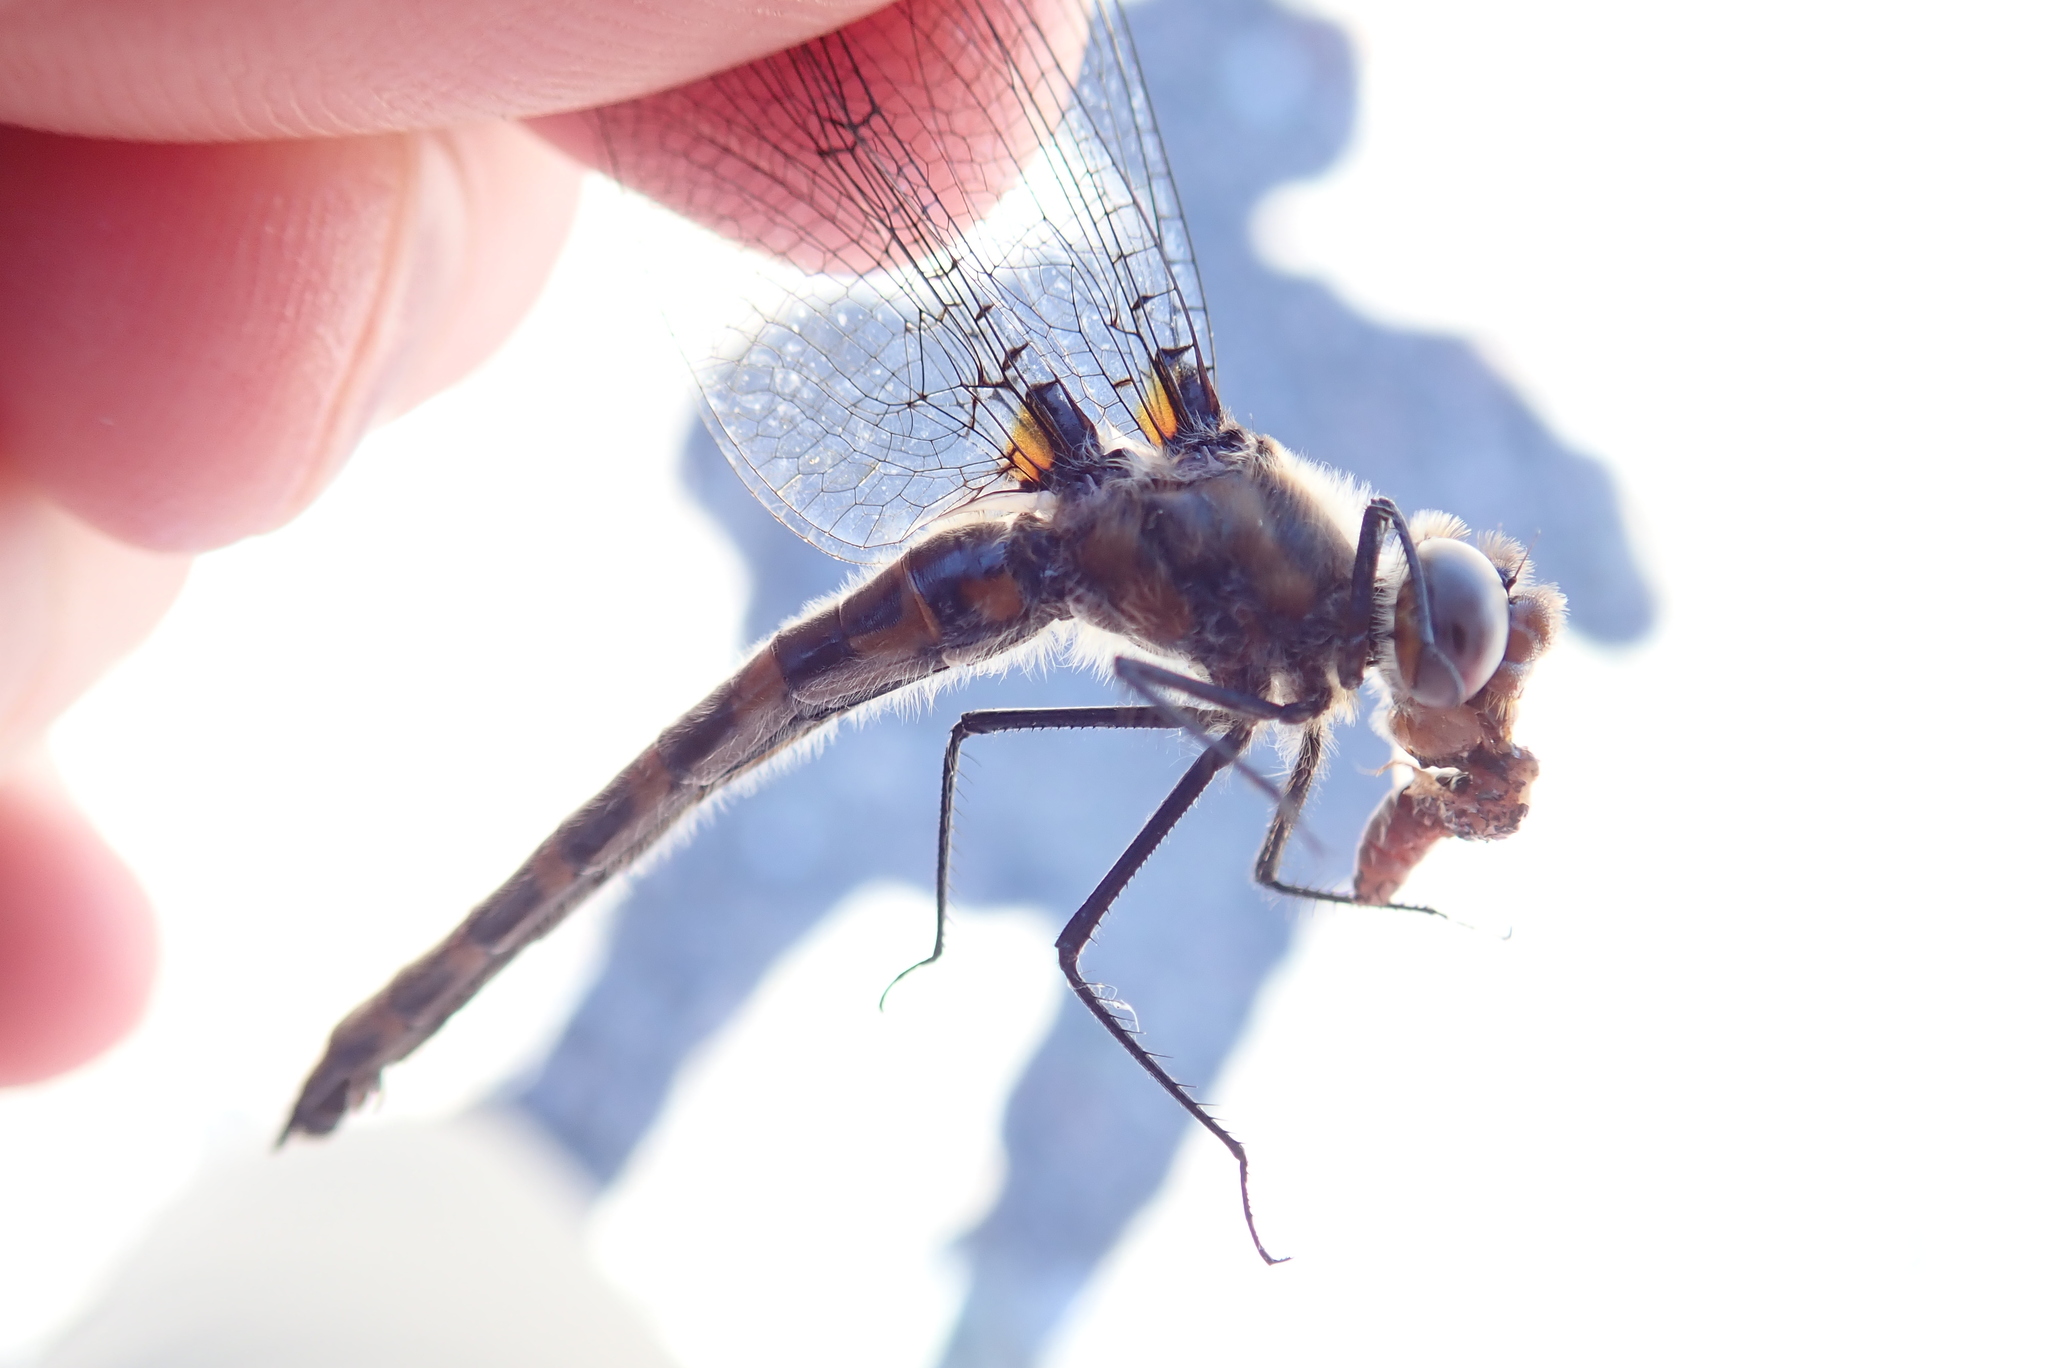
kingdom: Animalia
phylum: Arthropoda
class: Insecta
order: Odonata
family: Corduliidae
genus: Helocordulia
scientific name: Helocordulia uhleri
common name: Uhler's sundragon
